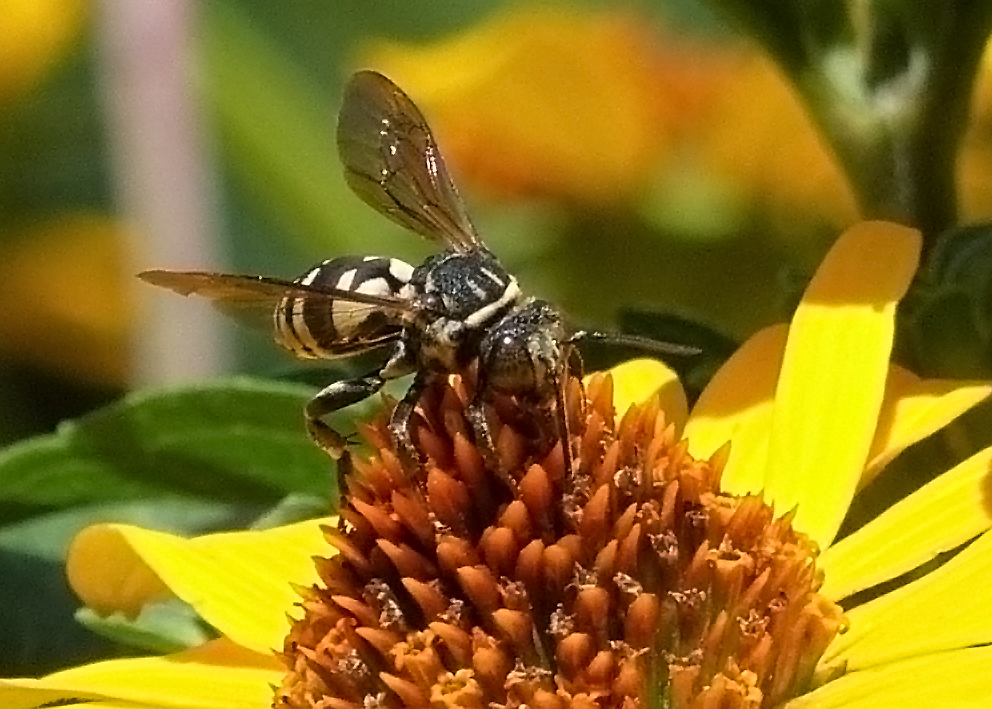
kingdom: Animalia
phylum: Arthropoda
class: Insecta
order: Hymenoptera
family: Apidae
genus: Triepeolus
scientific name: Triepeolus lunatus
